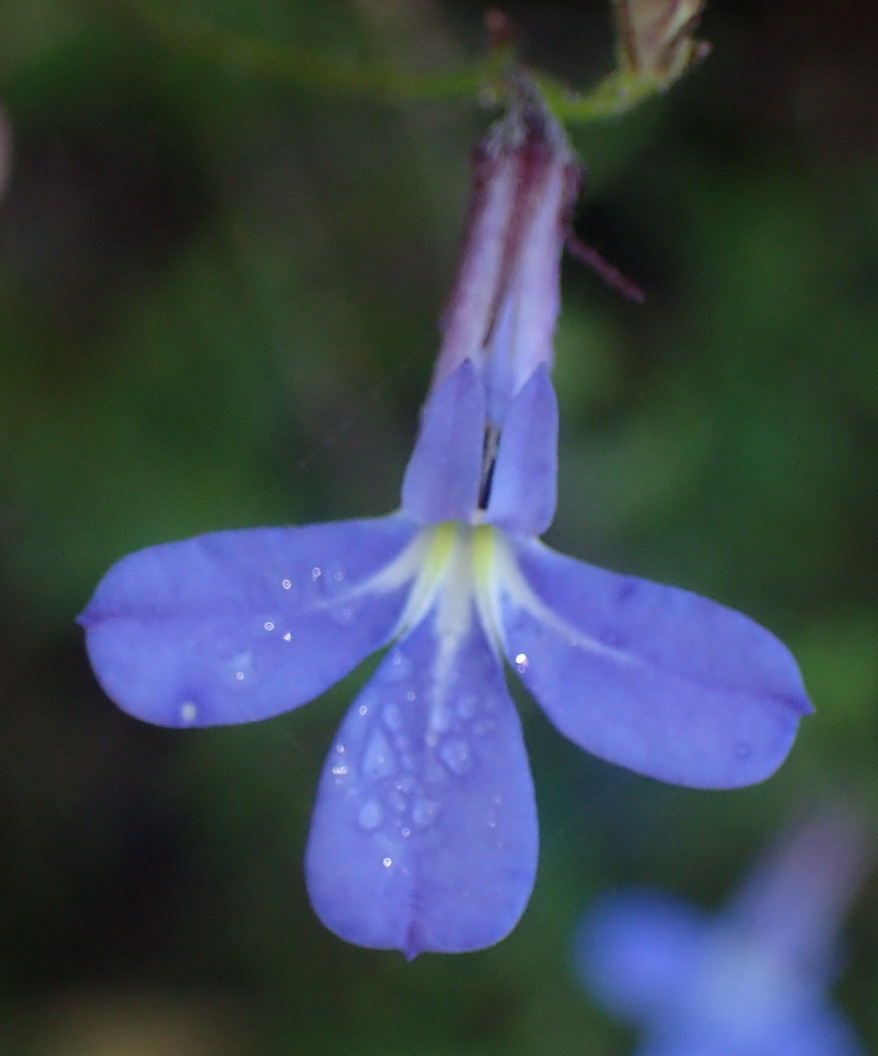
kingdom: Plantae
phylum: Tracheophyta
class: Magnoliopsida
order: Asterales
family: Campanulaceae
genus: Lobelia
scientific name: Lobelia neglecta
